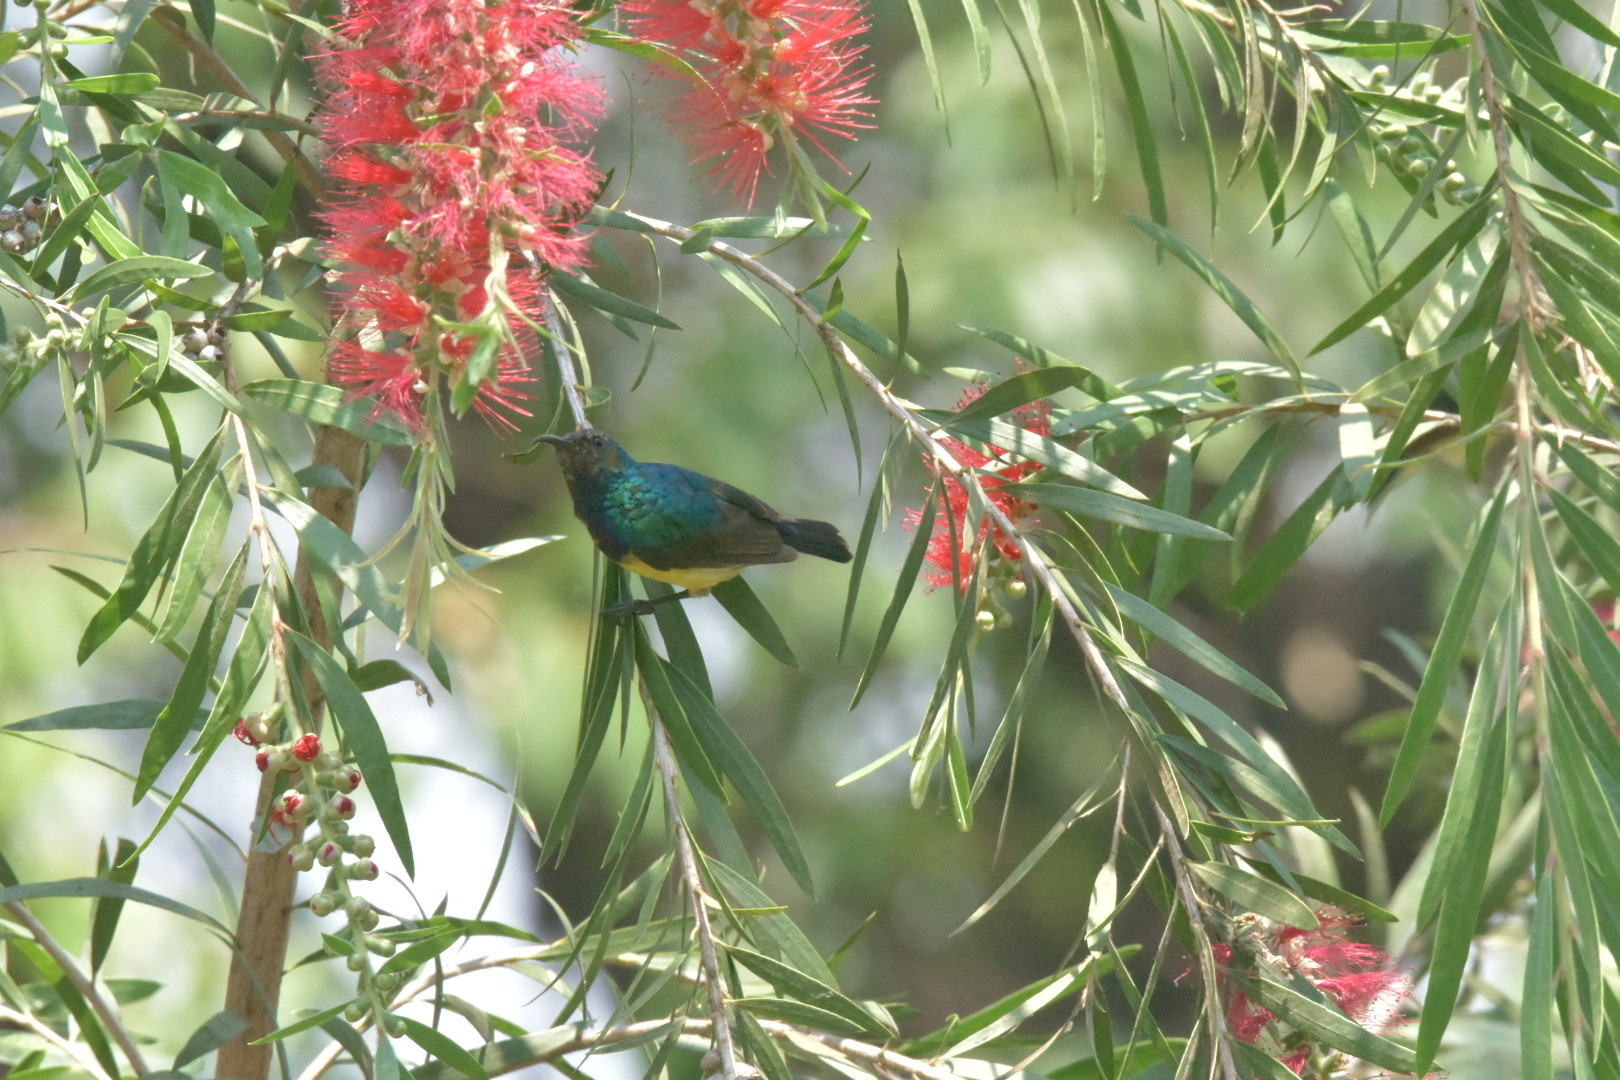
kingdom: Animalia
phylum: Chordata
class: Aves
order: Passeriformes
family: Nectariniidae
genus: Cinnyris
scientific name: Cinnyris venustus
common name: Variable sunbird
